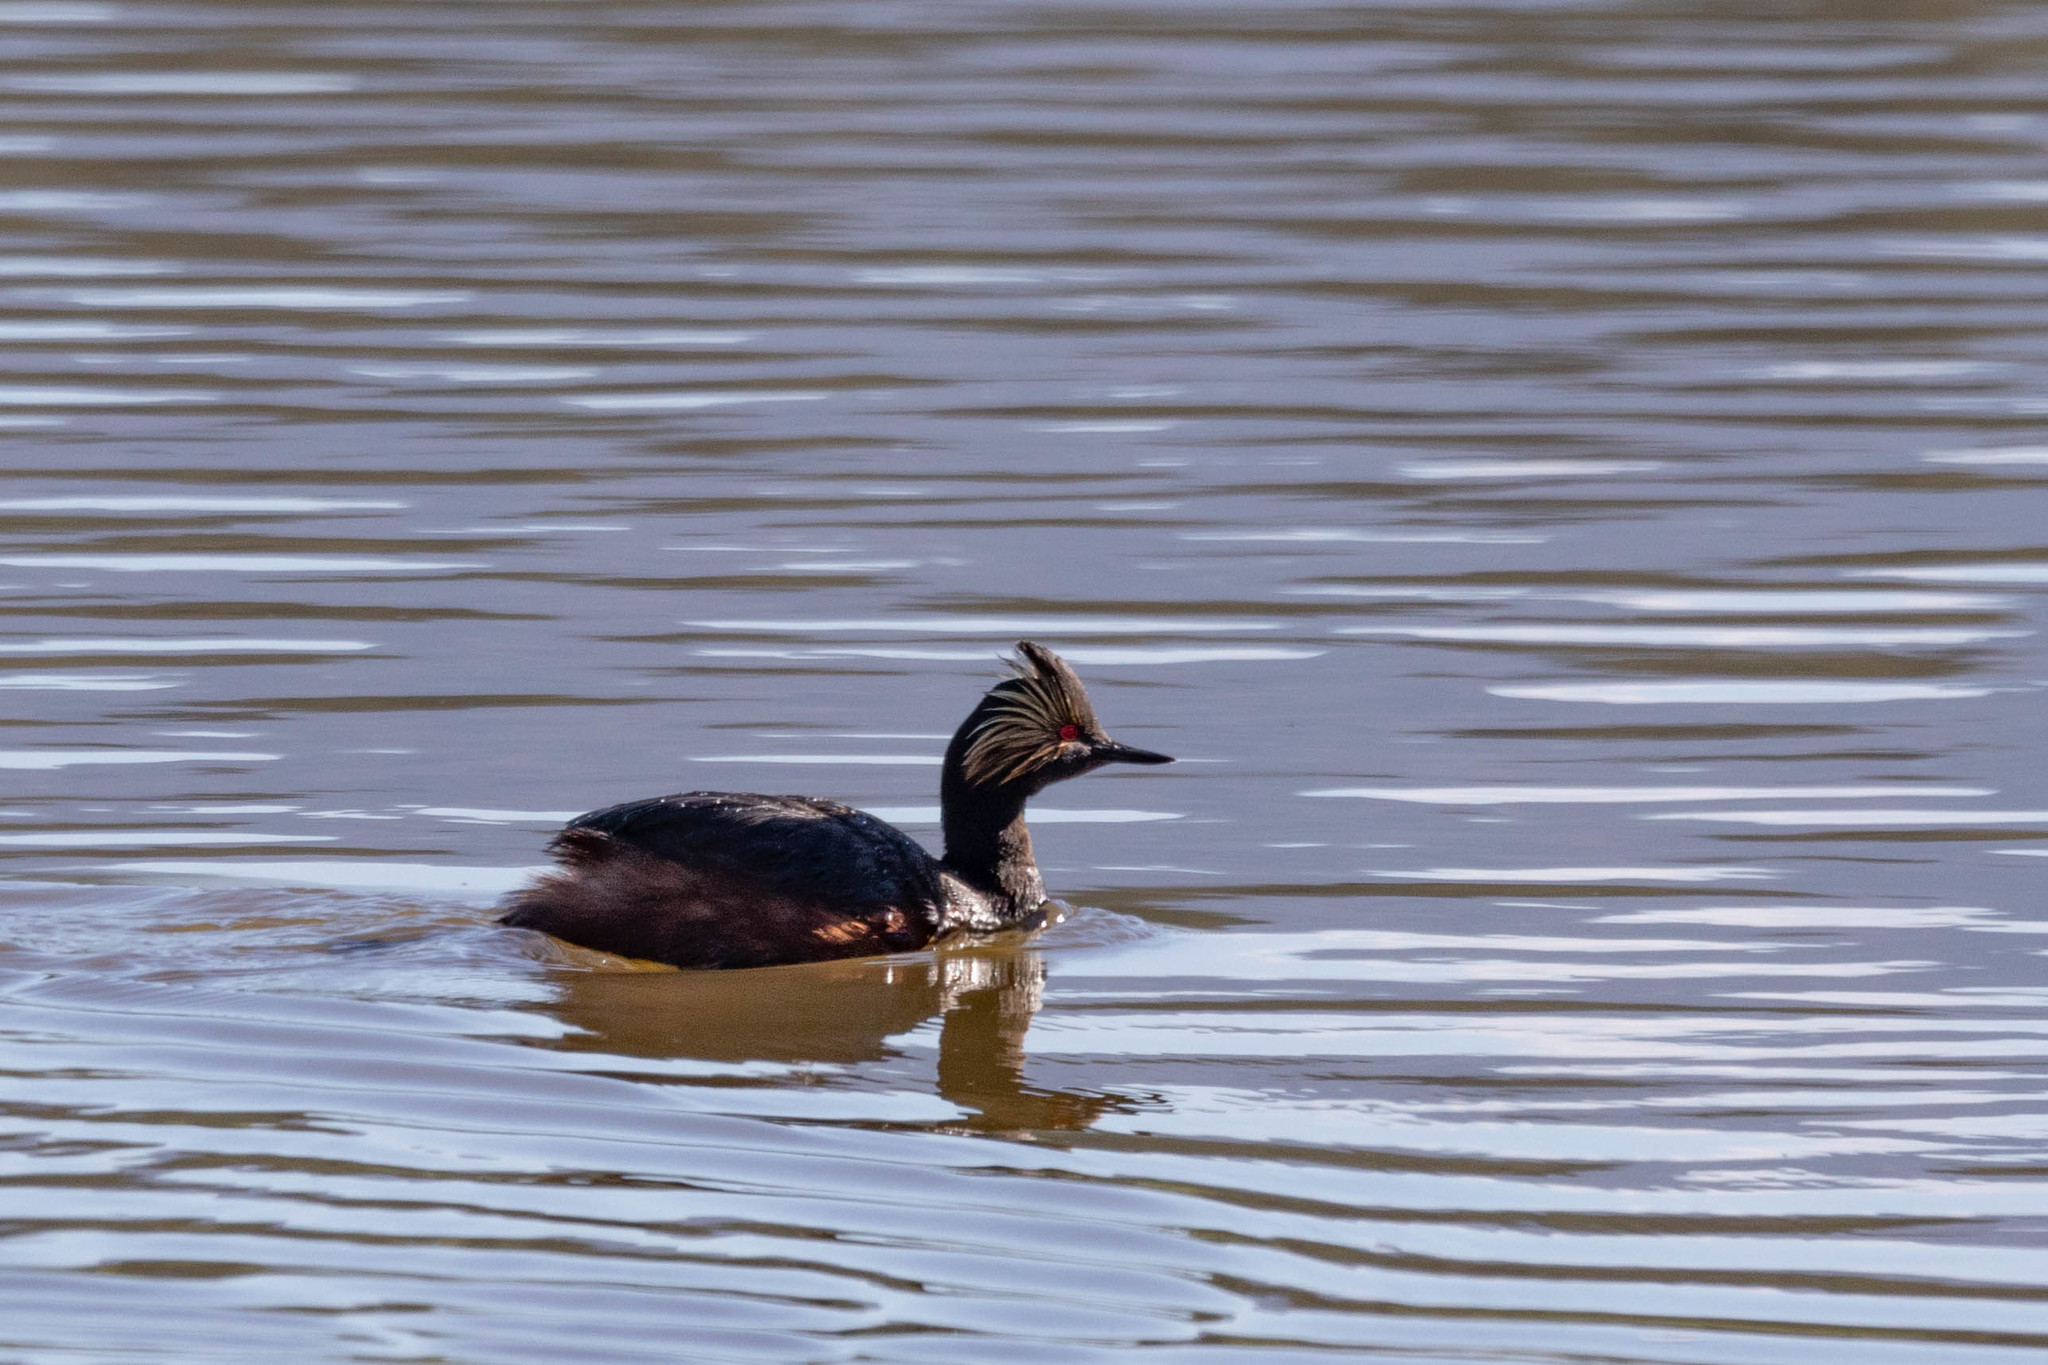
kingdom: Animalia
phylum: Chordata
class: Aves
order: Podicipediformes
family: Podicipedidae
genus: Podiceps
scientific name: Podiceps nigricollis
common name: Black-necked grebe
